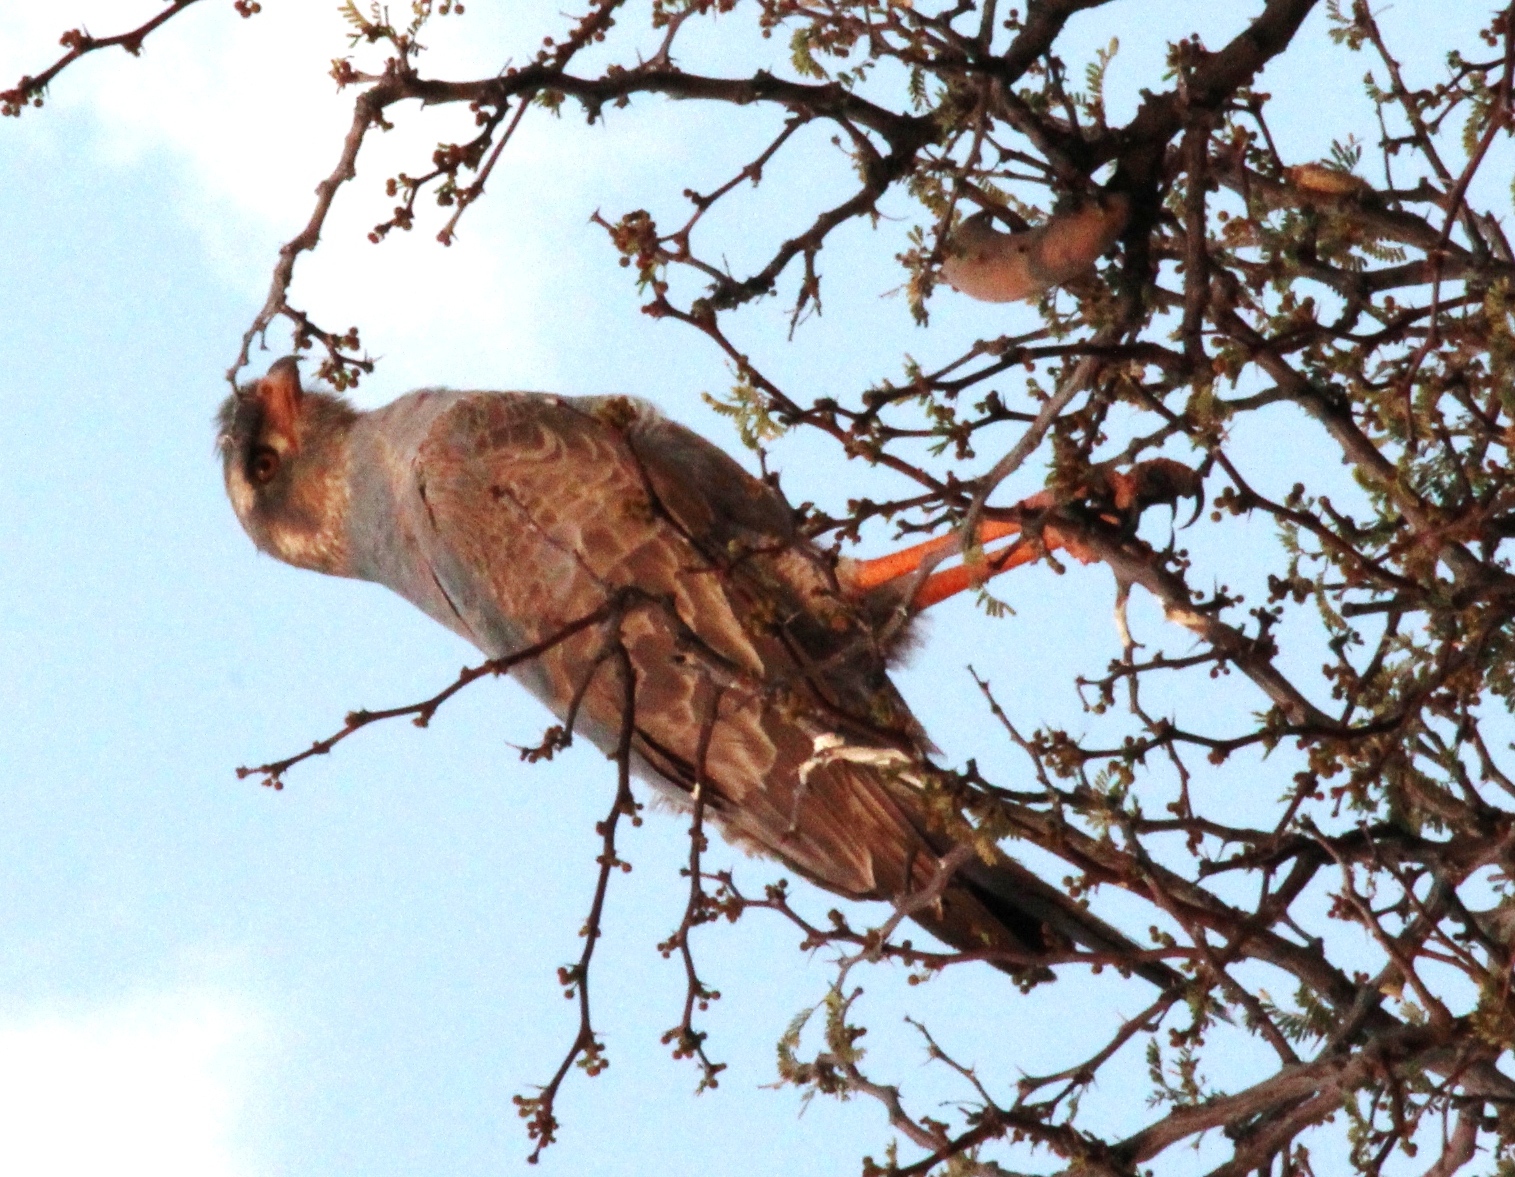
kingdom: Animalia
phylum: Chordata
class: Aves
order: Accipitriformes
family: Accipitridae
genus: Melierax
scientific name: Melierax canorus
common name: Pale chanting-goshawk
